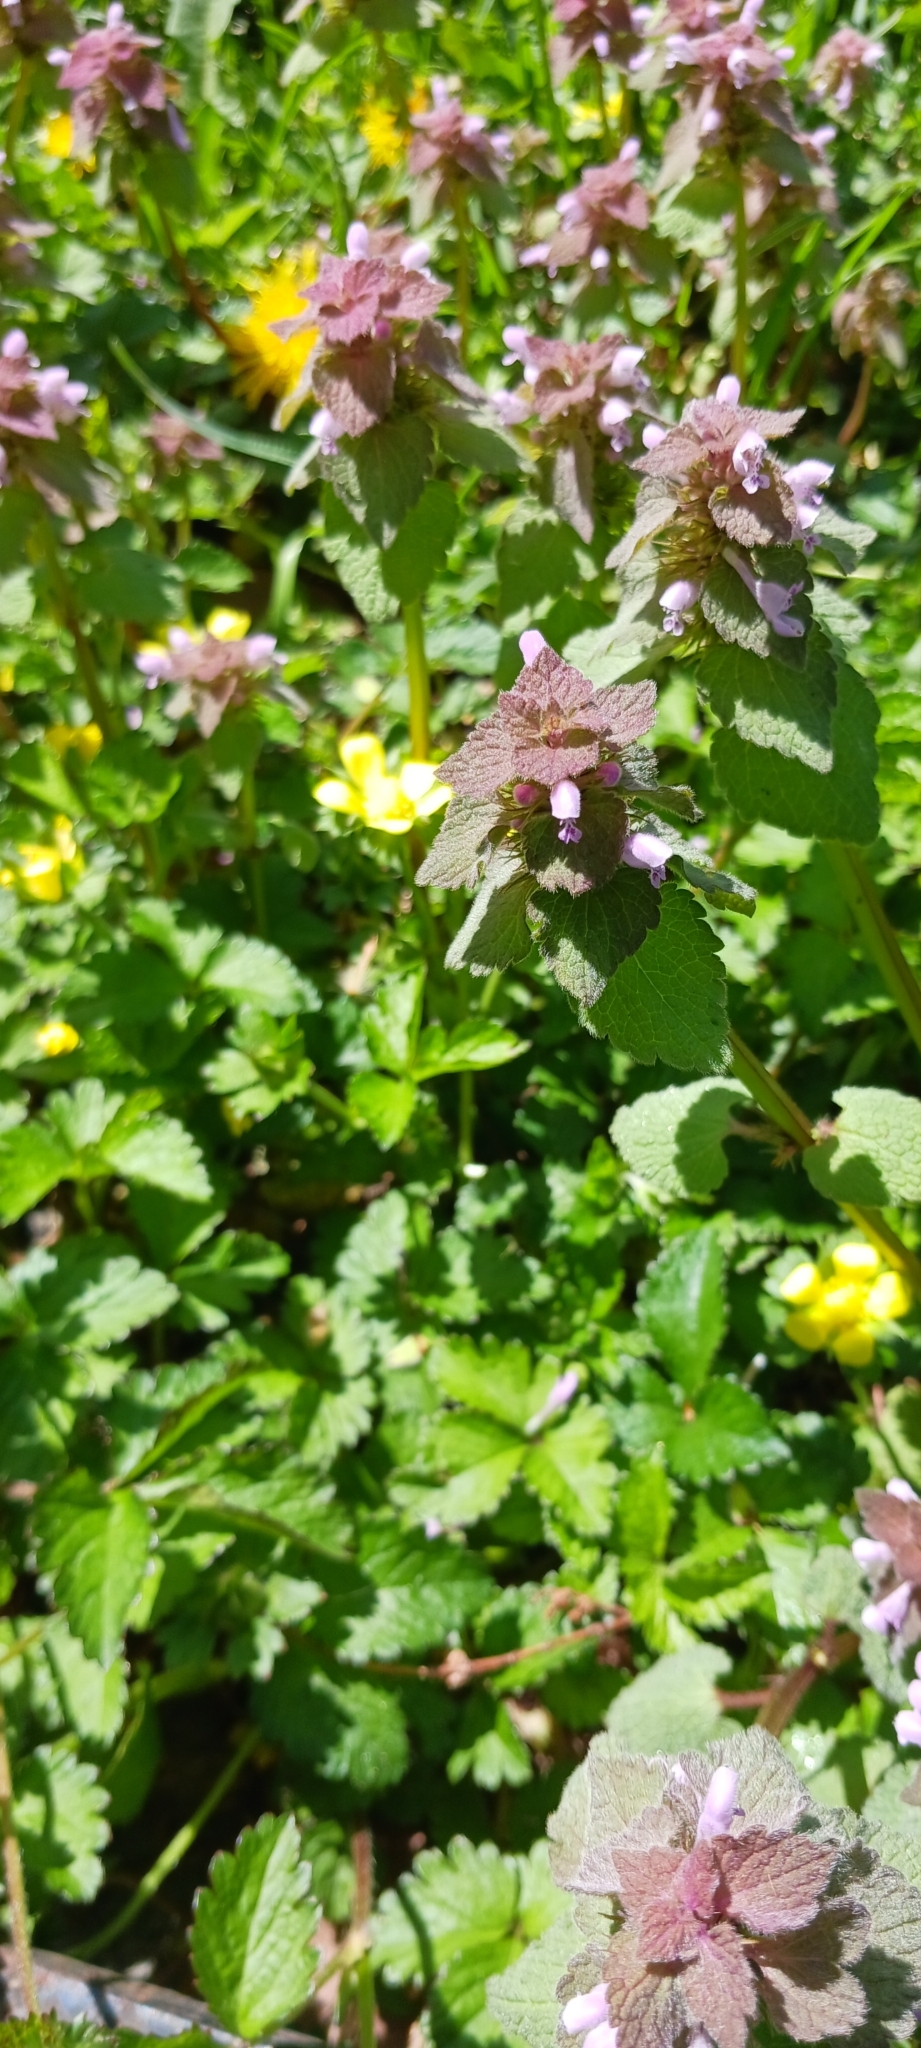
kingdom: Plantae
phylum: Tracheophyta
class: Magnoliopsida
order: Lamiales
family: Lamiaceae
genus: Lamium
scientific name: Lamium purpureum
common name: Red dead-nettle
